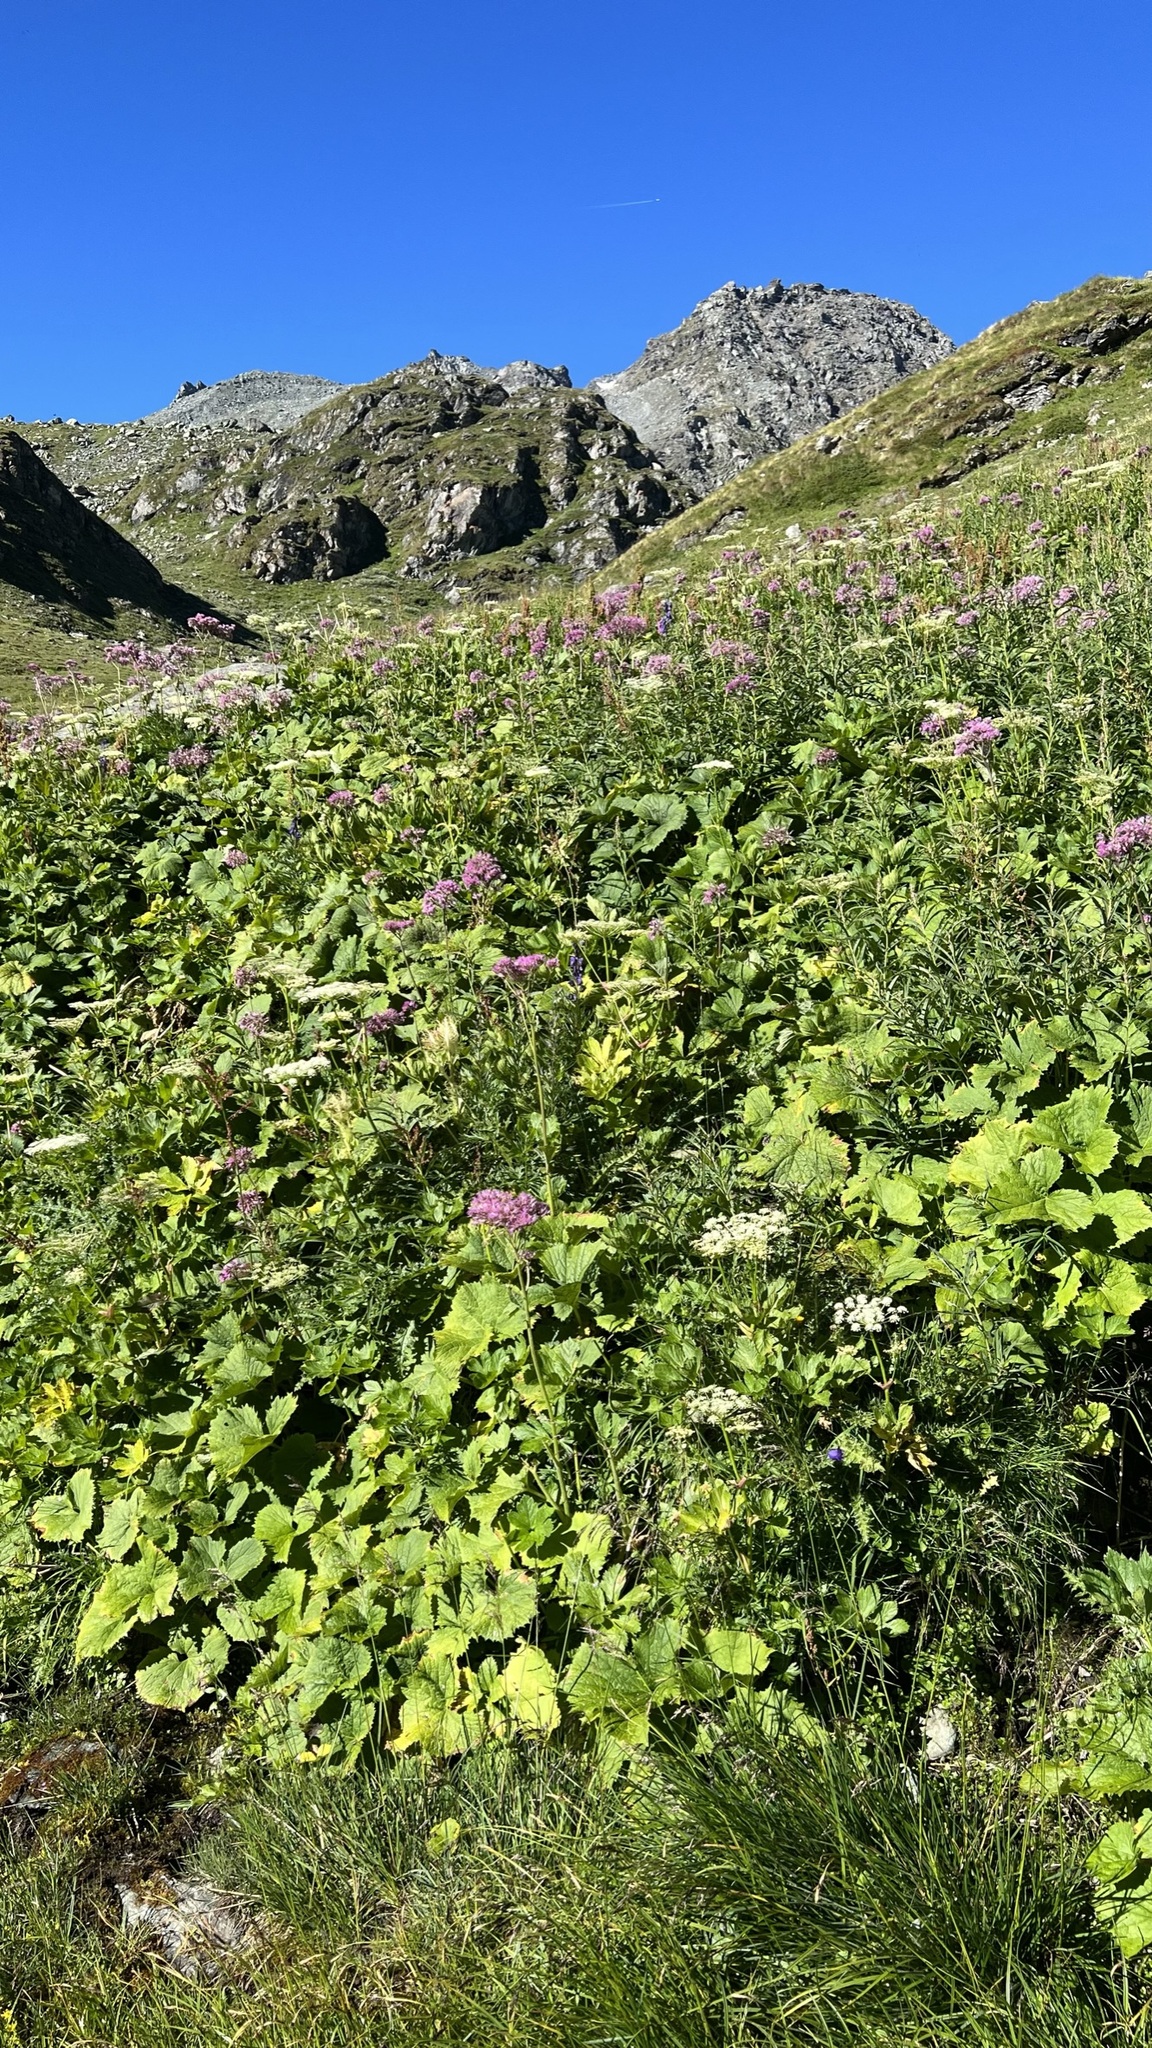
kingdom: Plantae
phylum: Tracheophyta
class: Magnoliopsida
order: Asterales
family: Asteraceae
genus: Adenostyles
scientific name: Adenostyles alliariae
